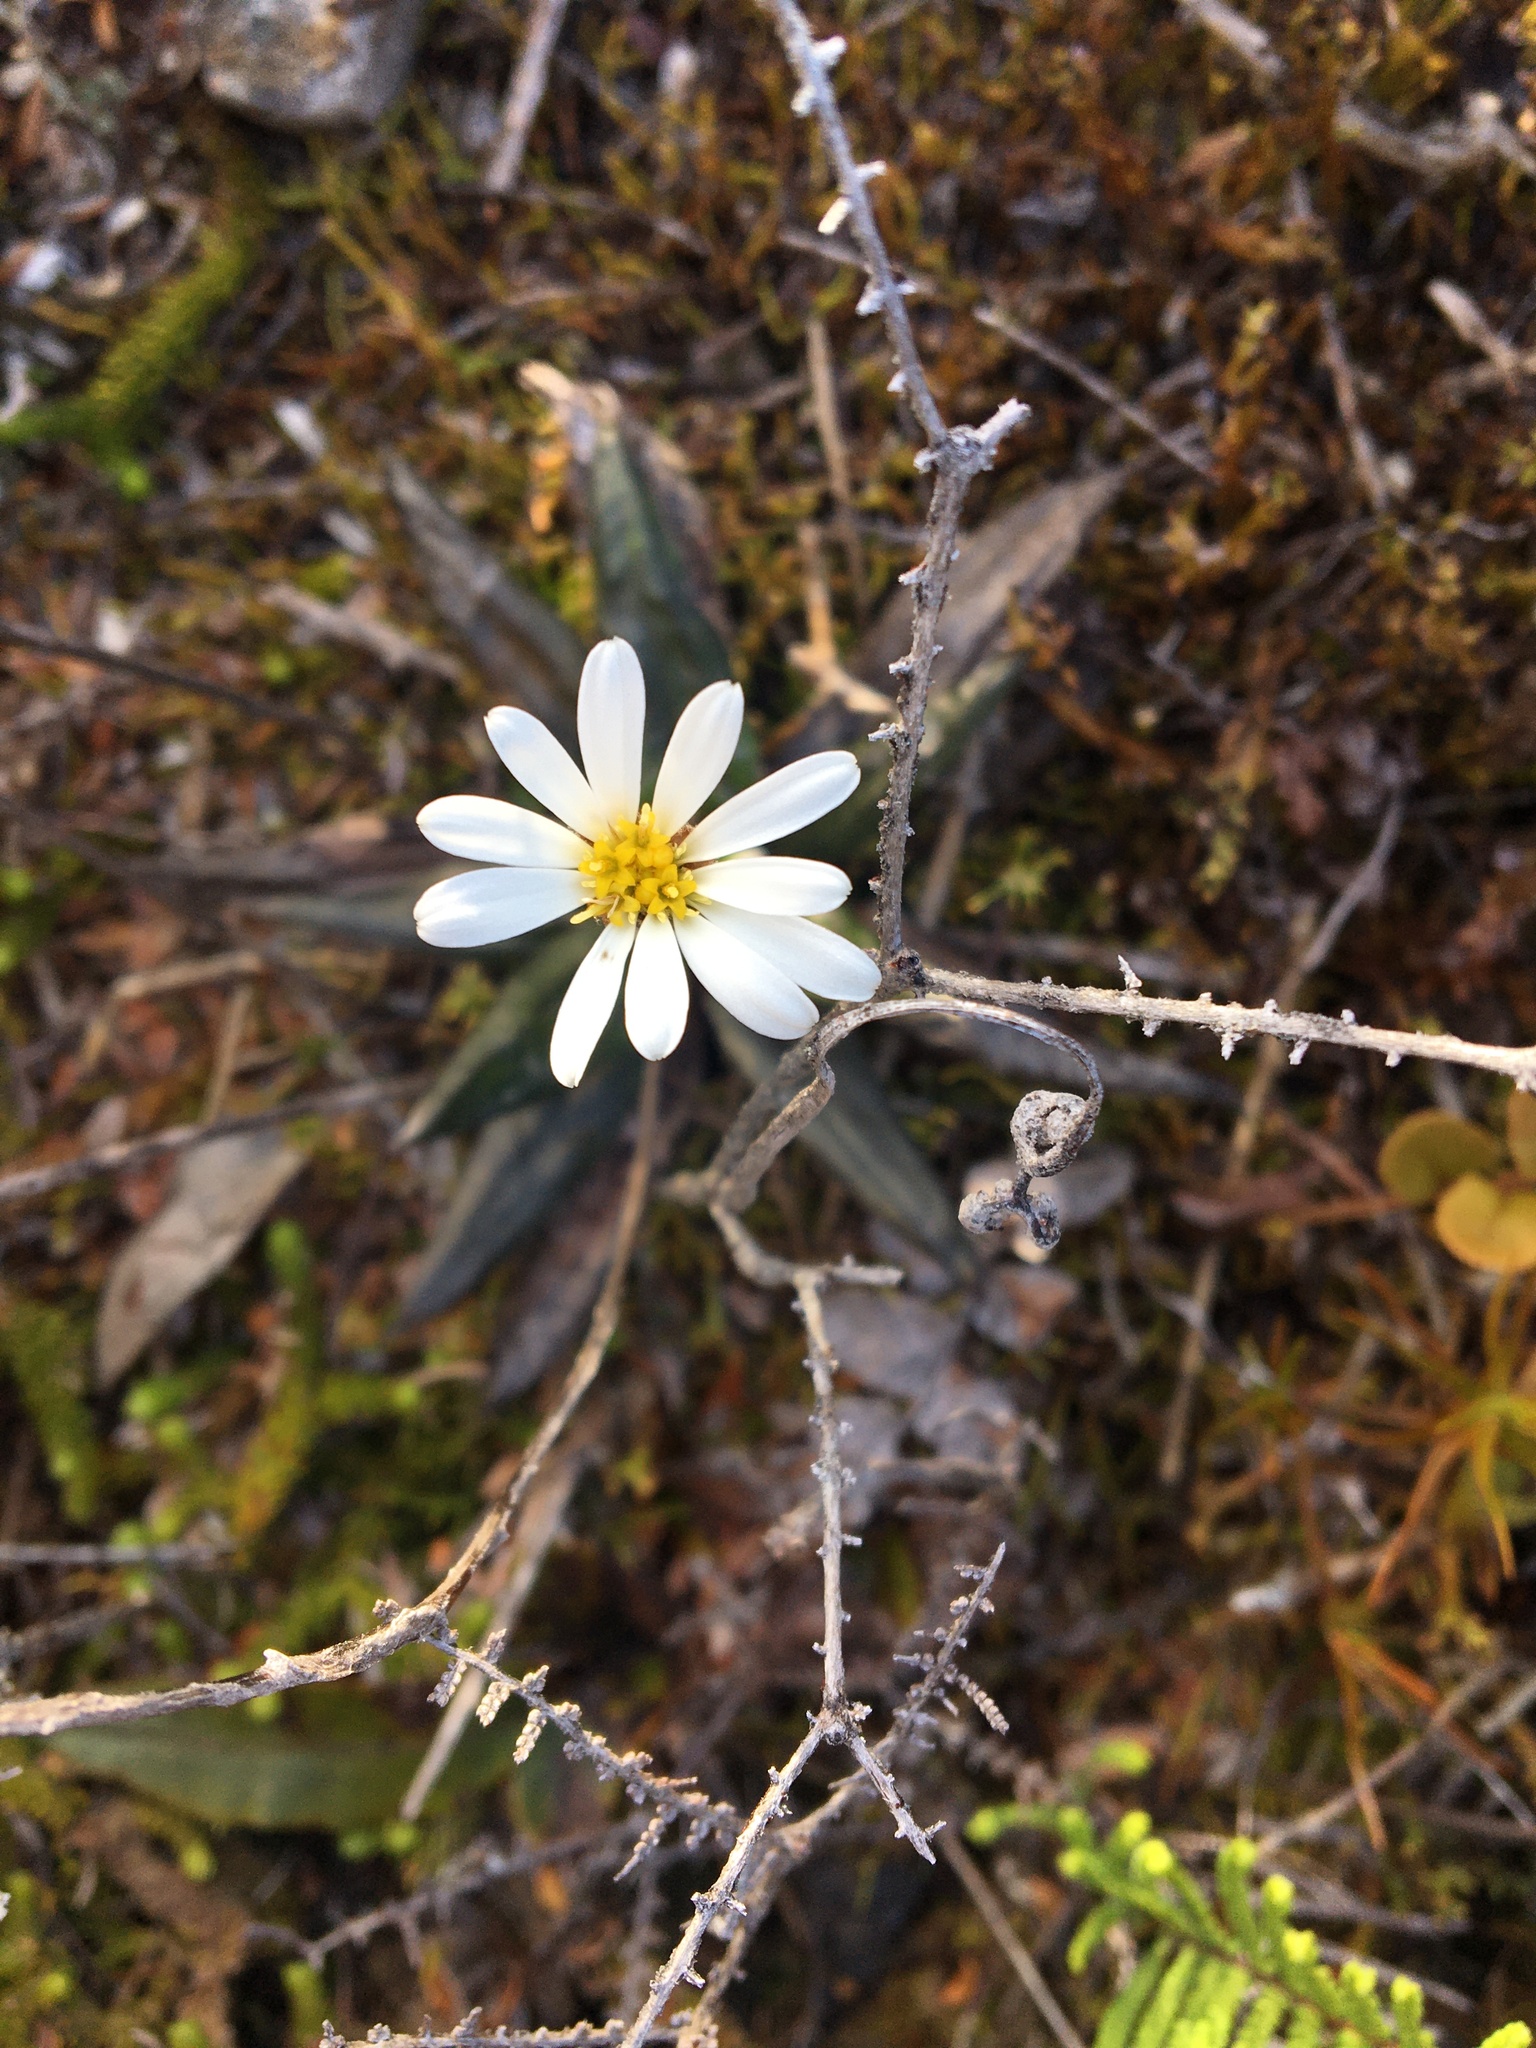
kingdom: Plantae
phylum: Tracheophyta
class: Magnoliopsida
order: Asterales
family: Asteraceae
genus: Celmisia
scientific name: Celmisia dubia
